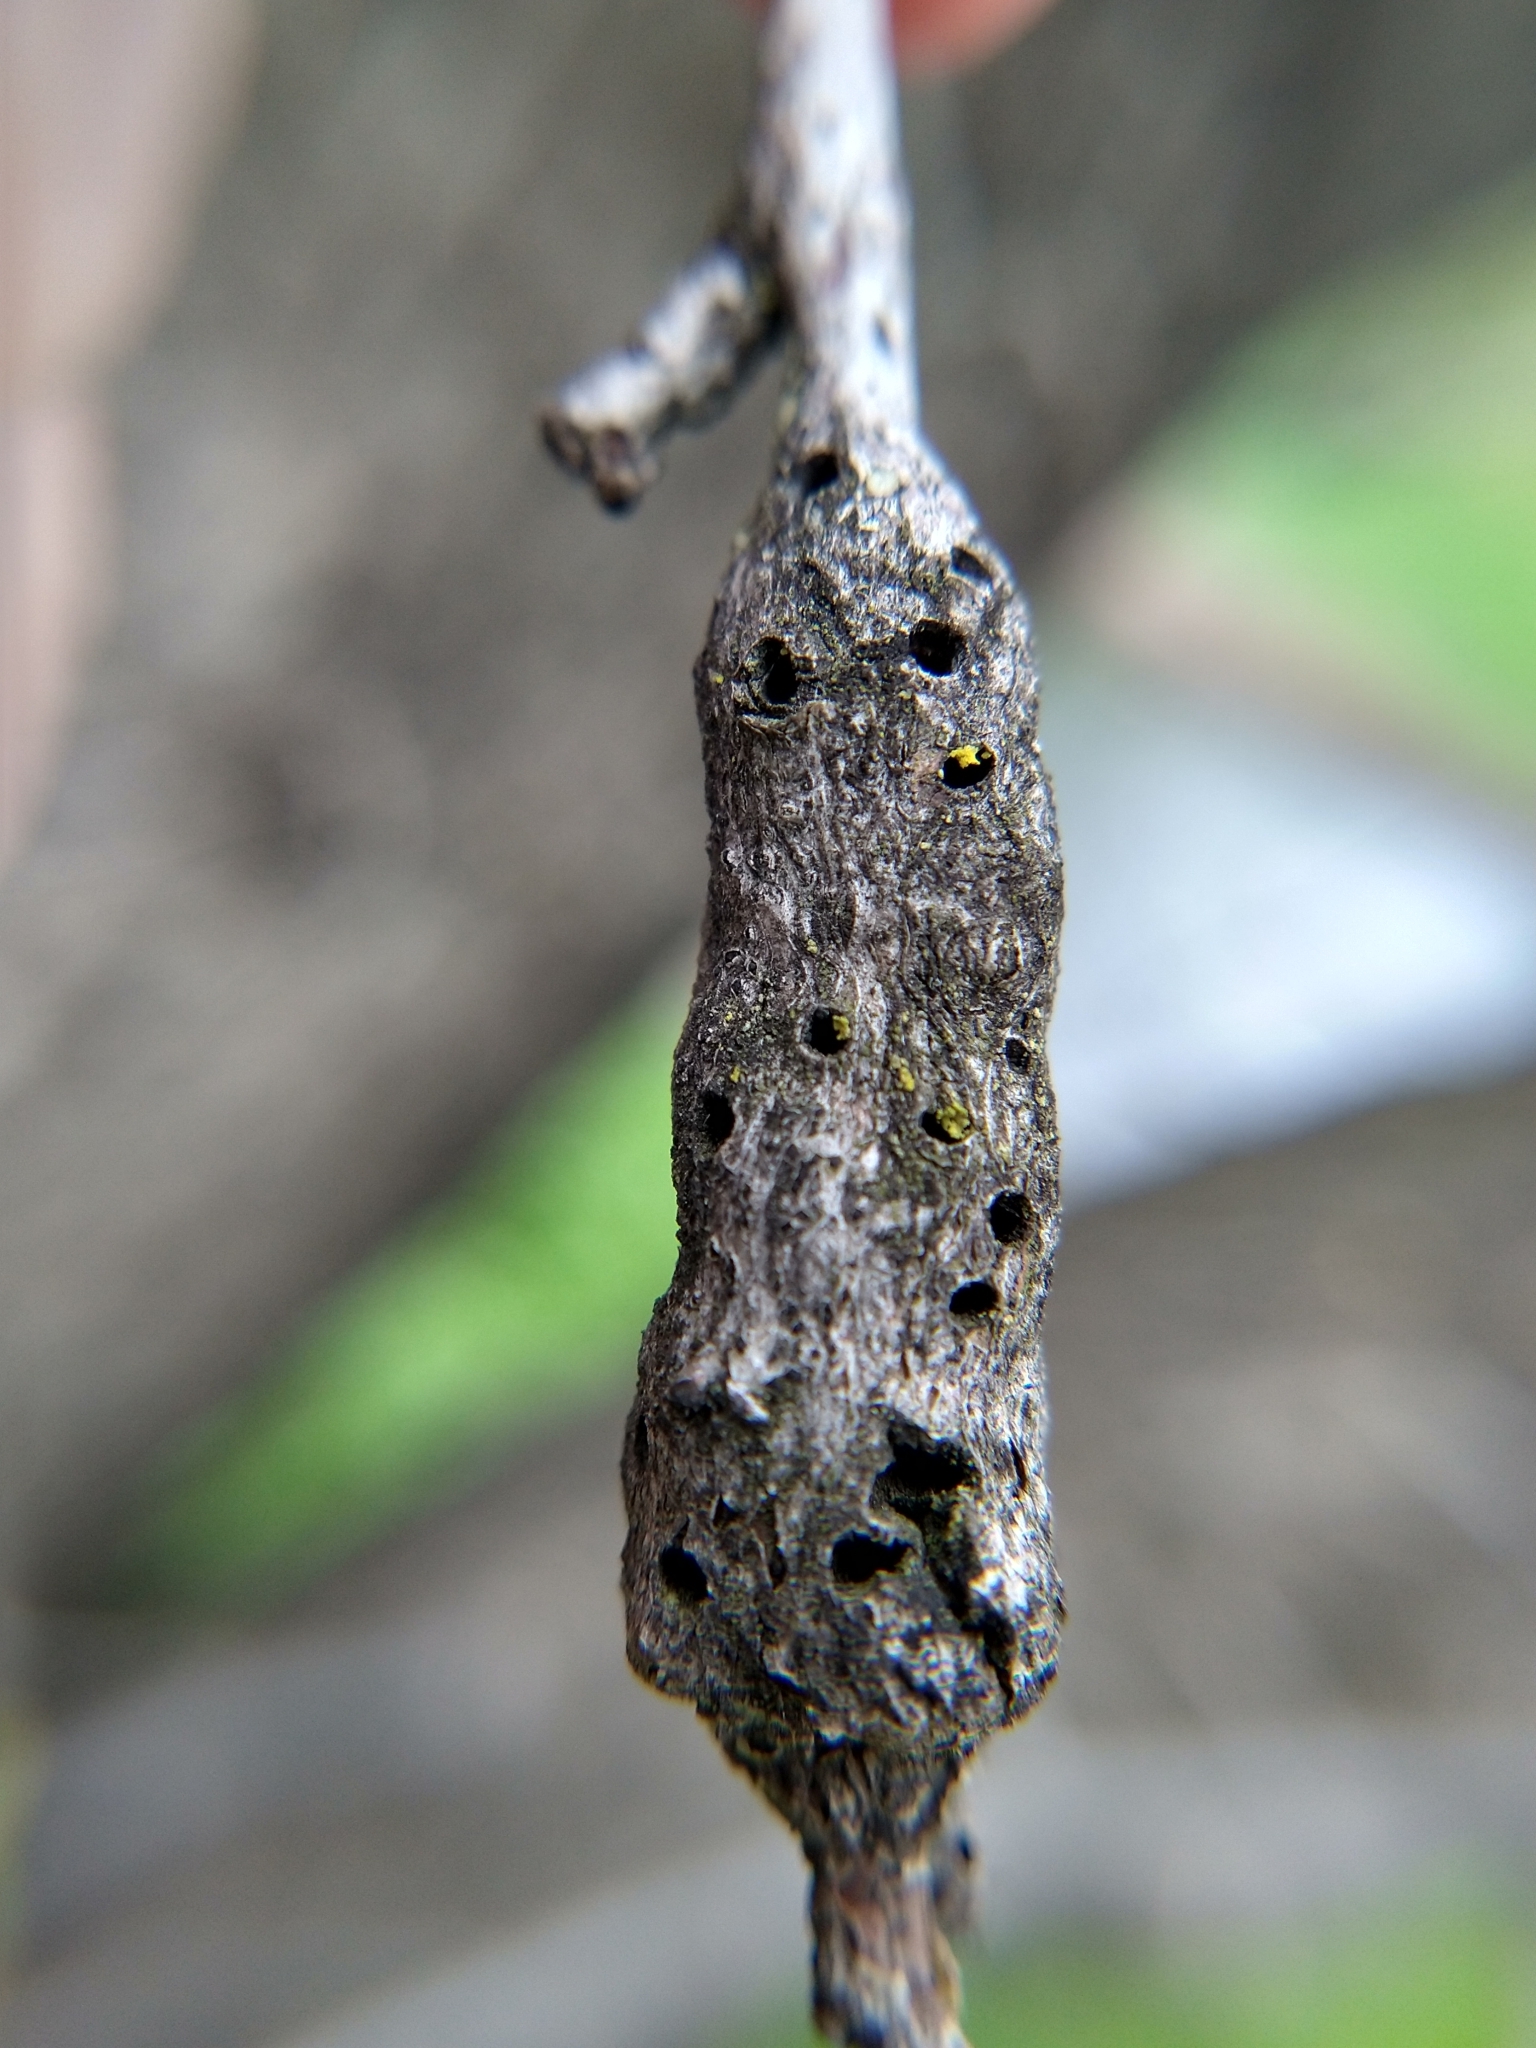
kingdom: Animalia
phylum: Arthropoda
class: Insecta
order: Hymenoptera
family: Cynipidae
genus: Andricus
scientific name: Andricus
